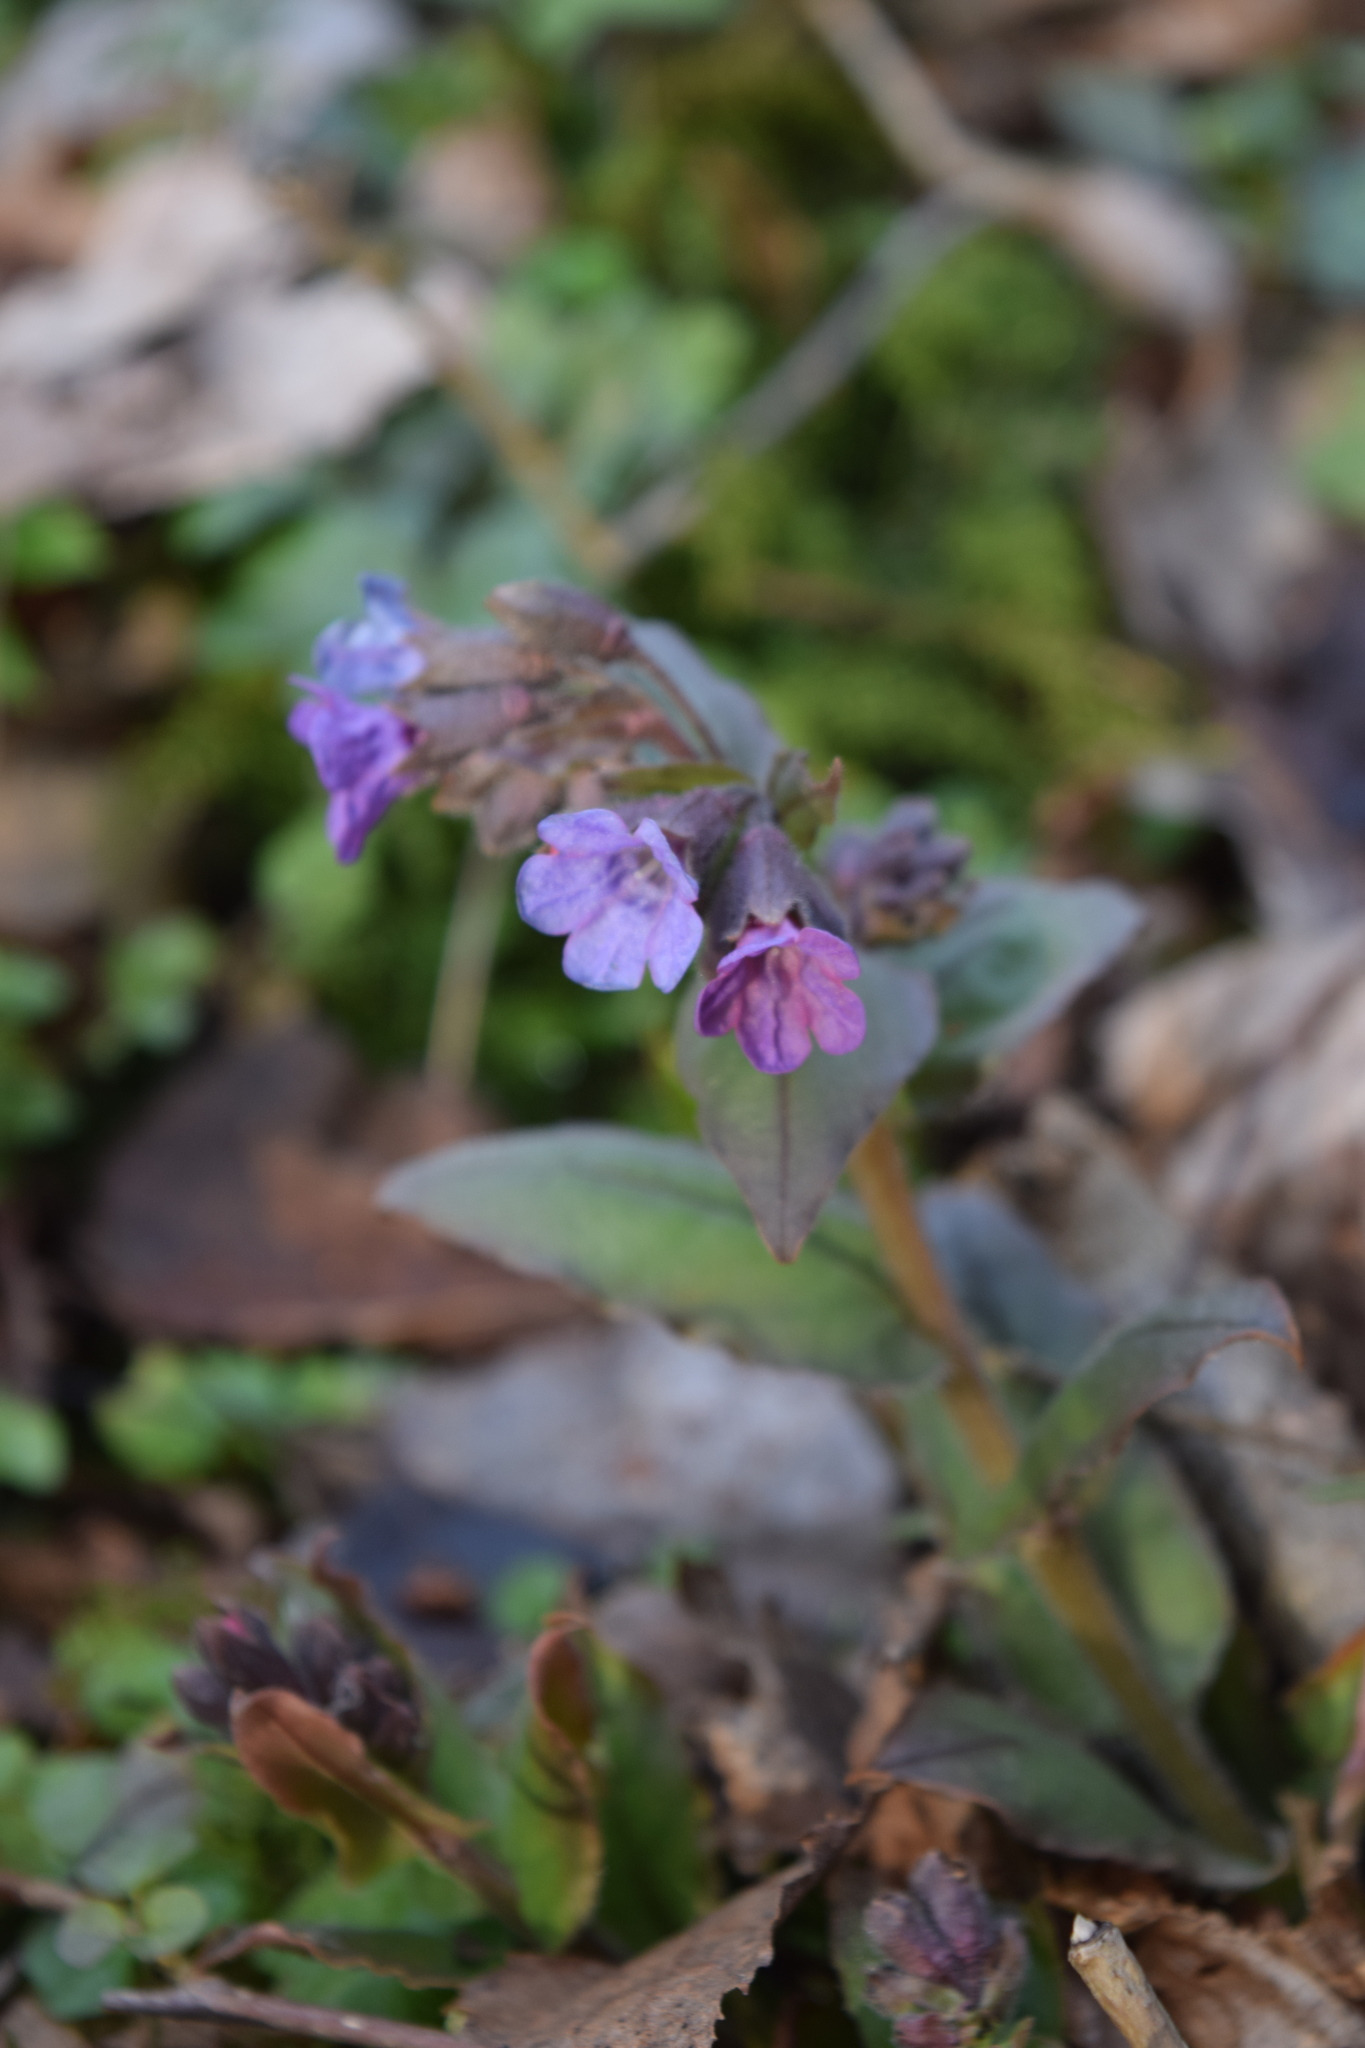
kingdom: Plantae
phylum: Tracheophyta
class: Magnoliopsida
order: Boraginales
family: Boraginaceae
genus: Pulmonaria
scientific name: Pulmonaria obscura
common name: Suffolk lungwort
